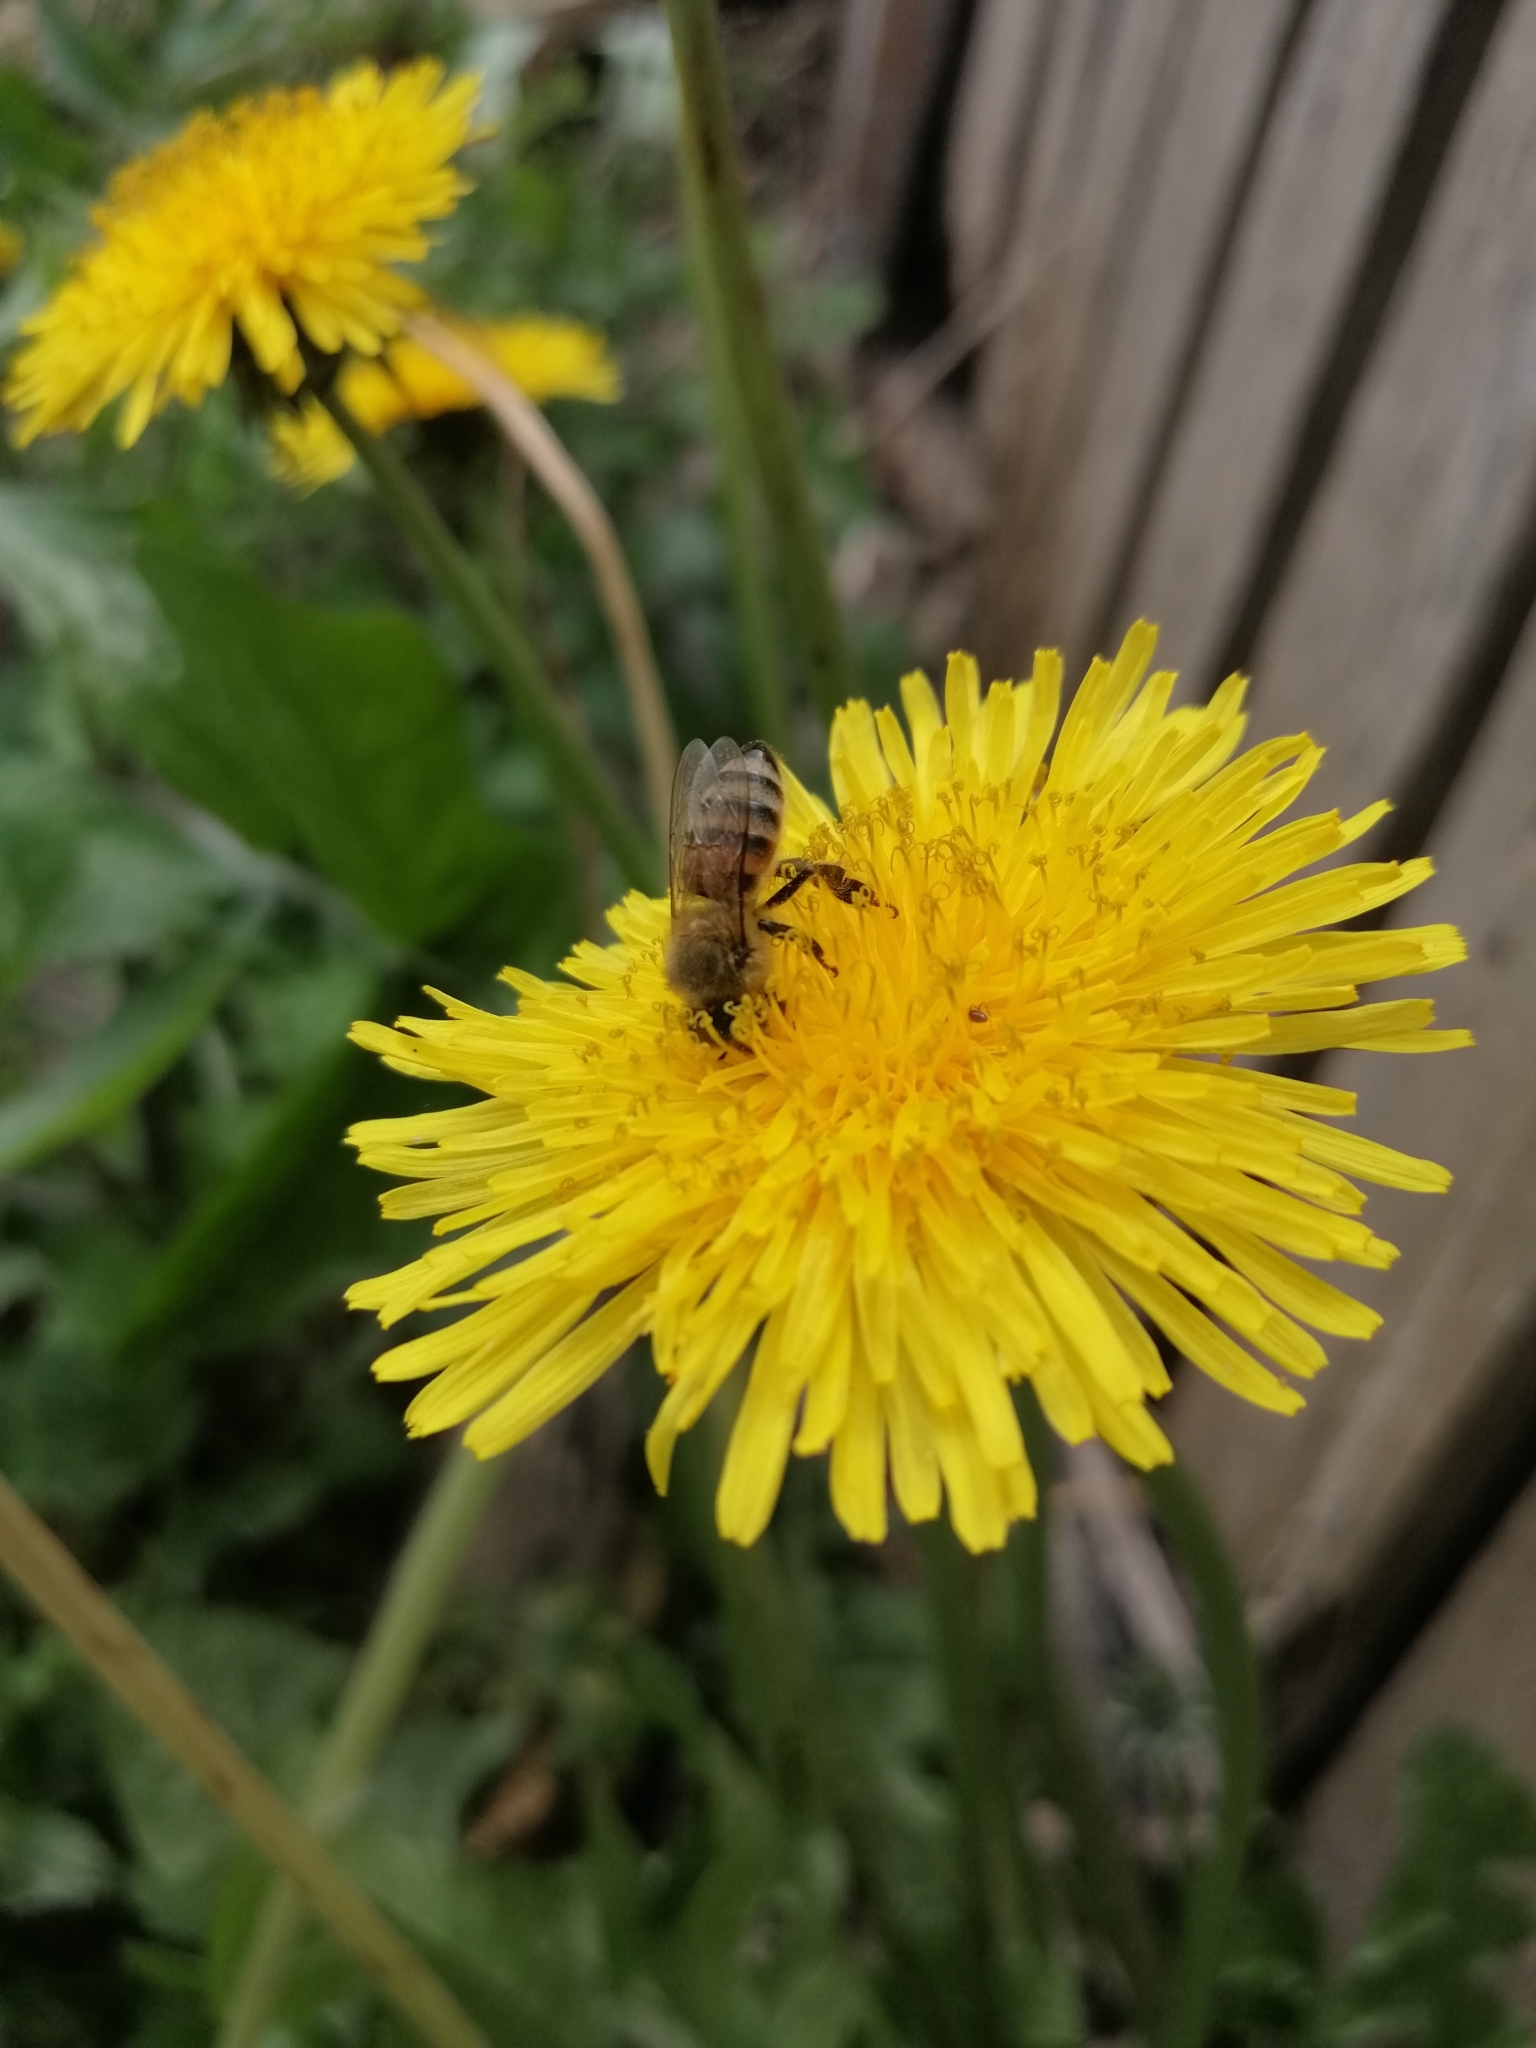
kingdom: Animalia
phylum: Arthropoda
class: Insecta
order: Hymenoptera
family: Apidae
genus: Apis
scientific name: Apis mellifera
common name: Honey bee
